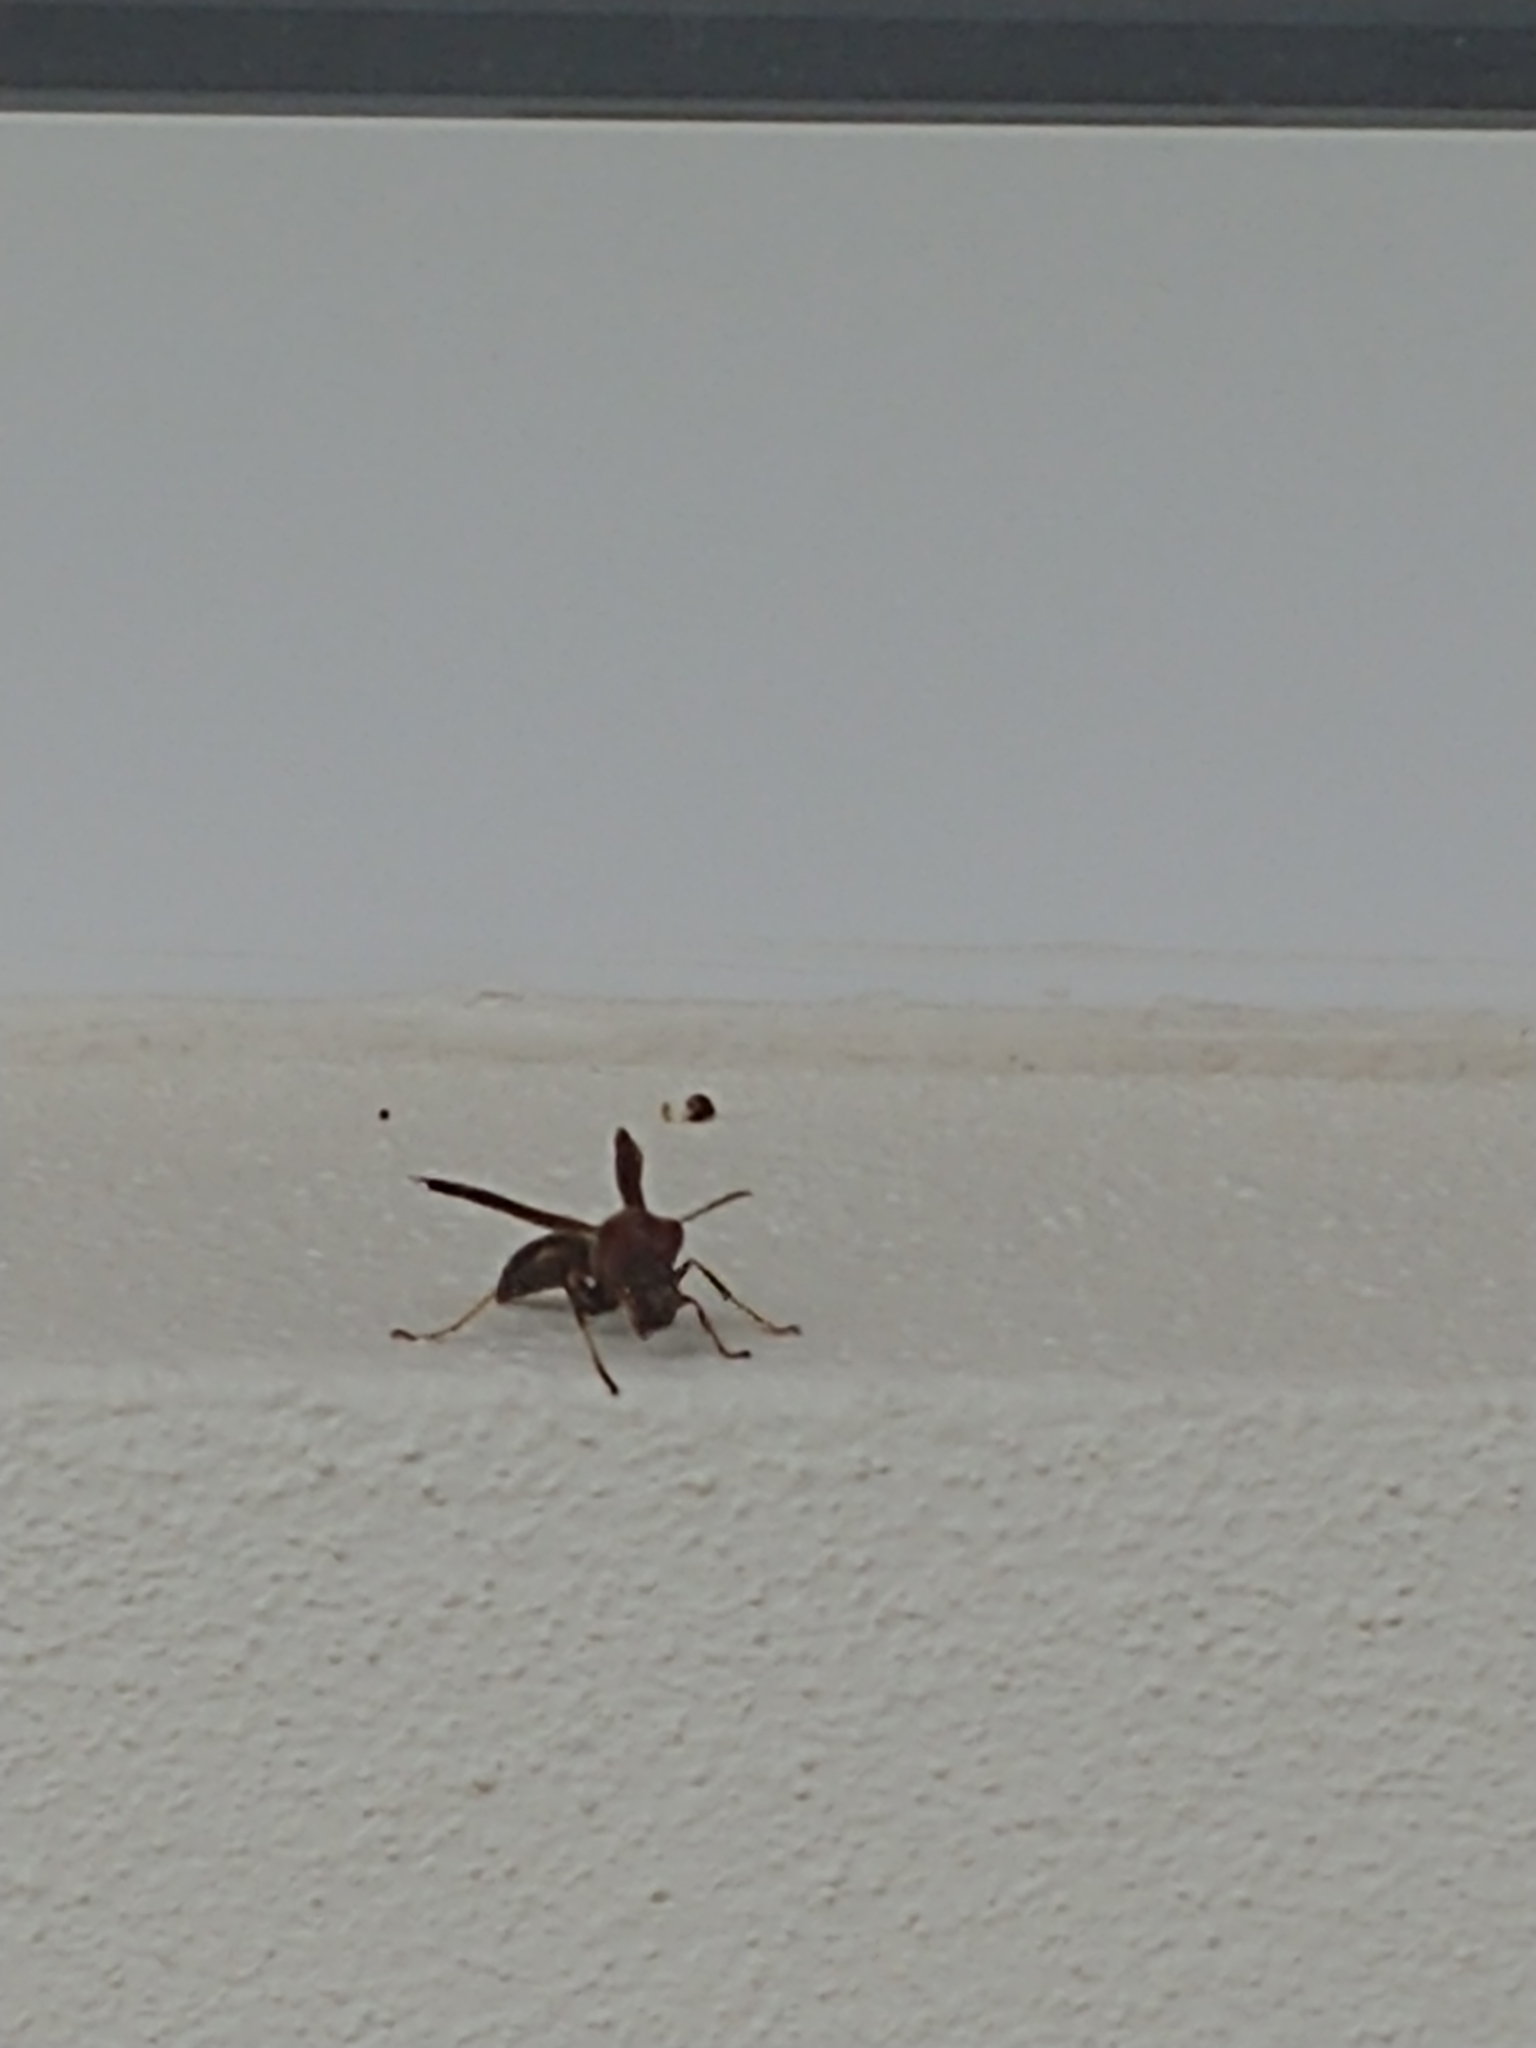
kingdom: Animalia
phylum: Arthropoda
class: Insecta
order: Hymenoptera
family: Eumenidae
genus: Polistes
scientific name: Polistes metricus
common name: Metric paper wasp
